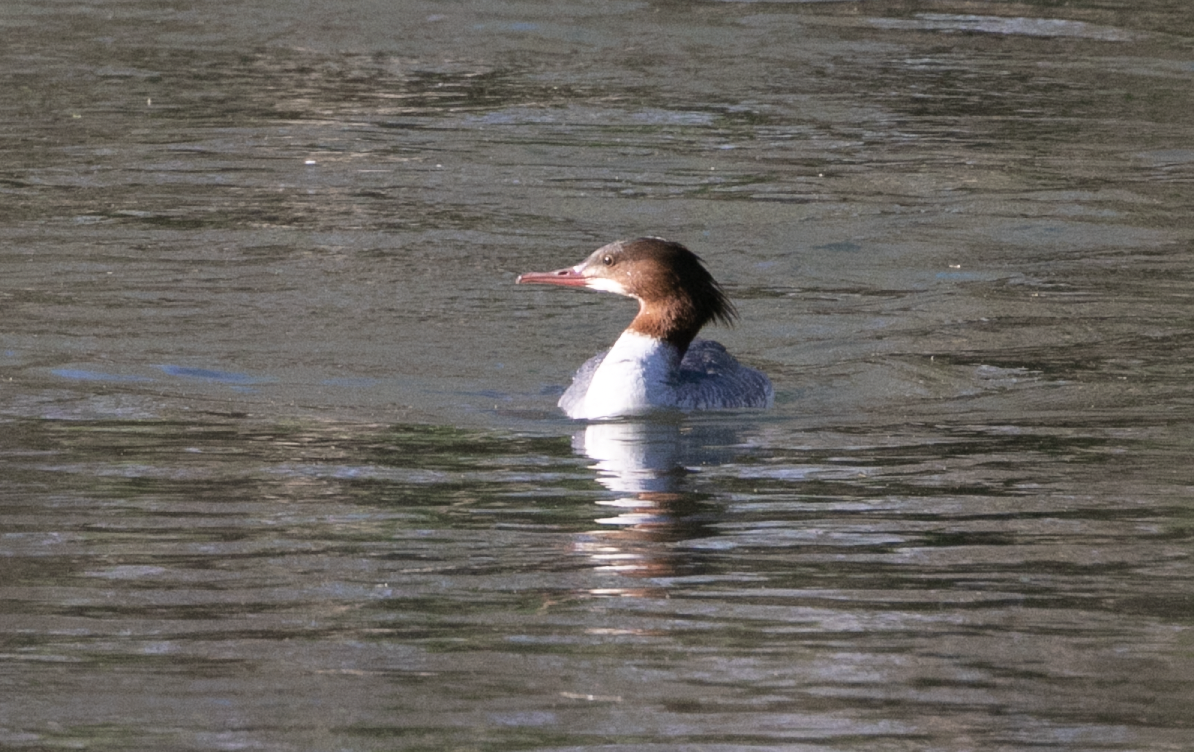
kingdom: Animalia
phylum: Chordata
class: Aves
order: Anseriformes
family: Anatidae
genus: Mergus
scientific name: Mergus merganser
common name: Common merganser
